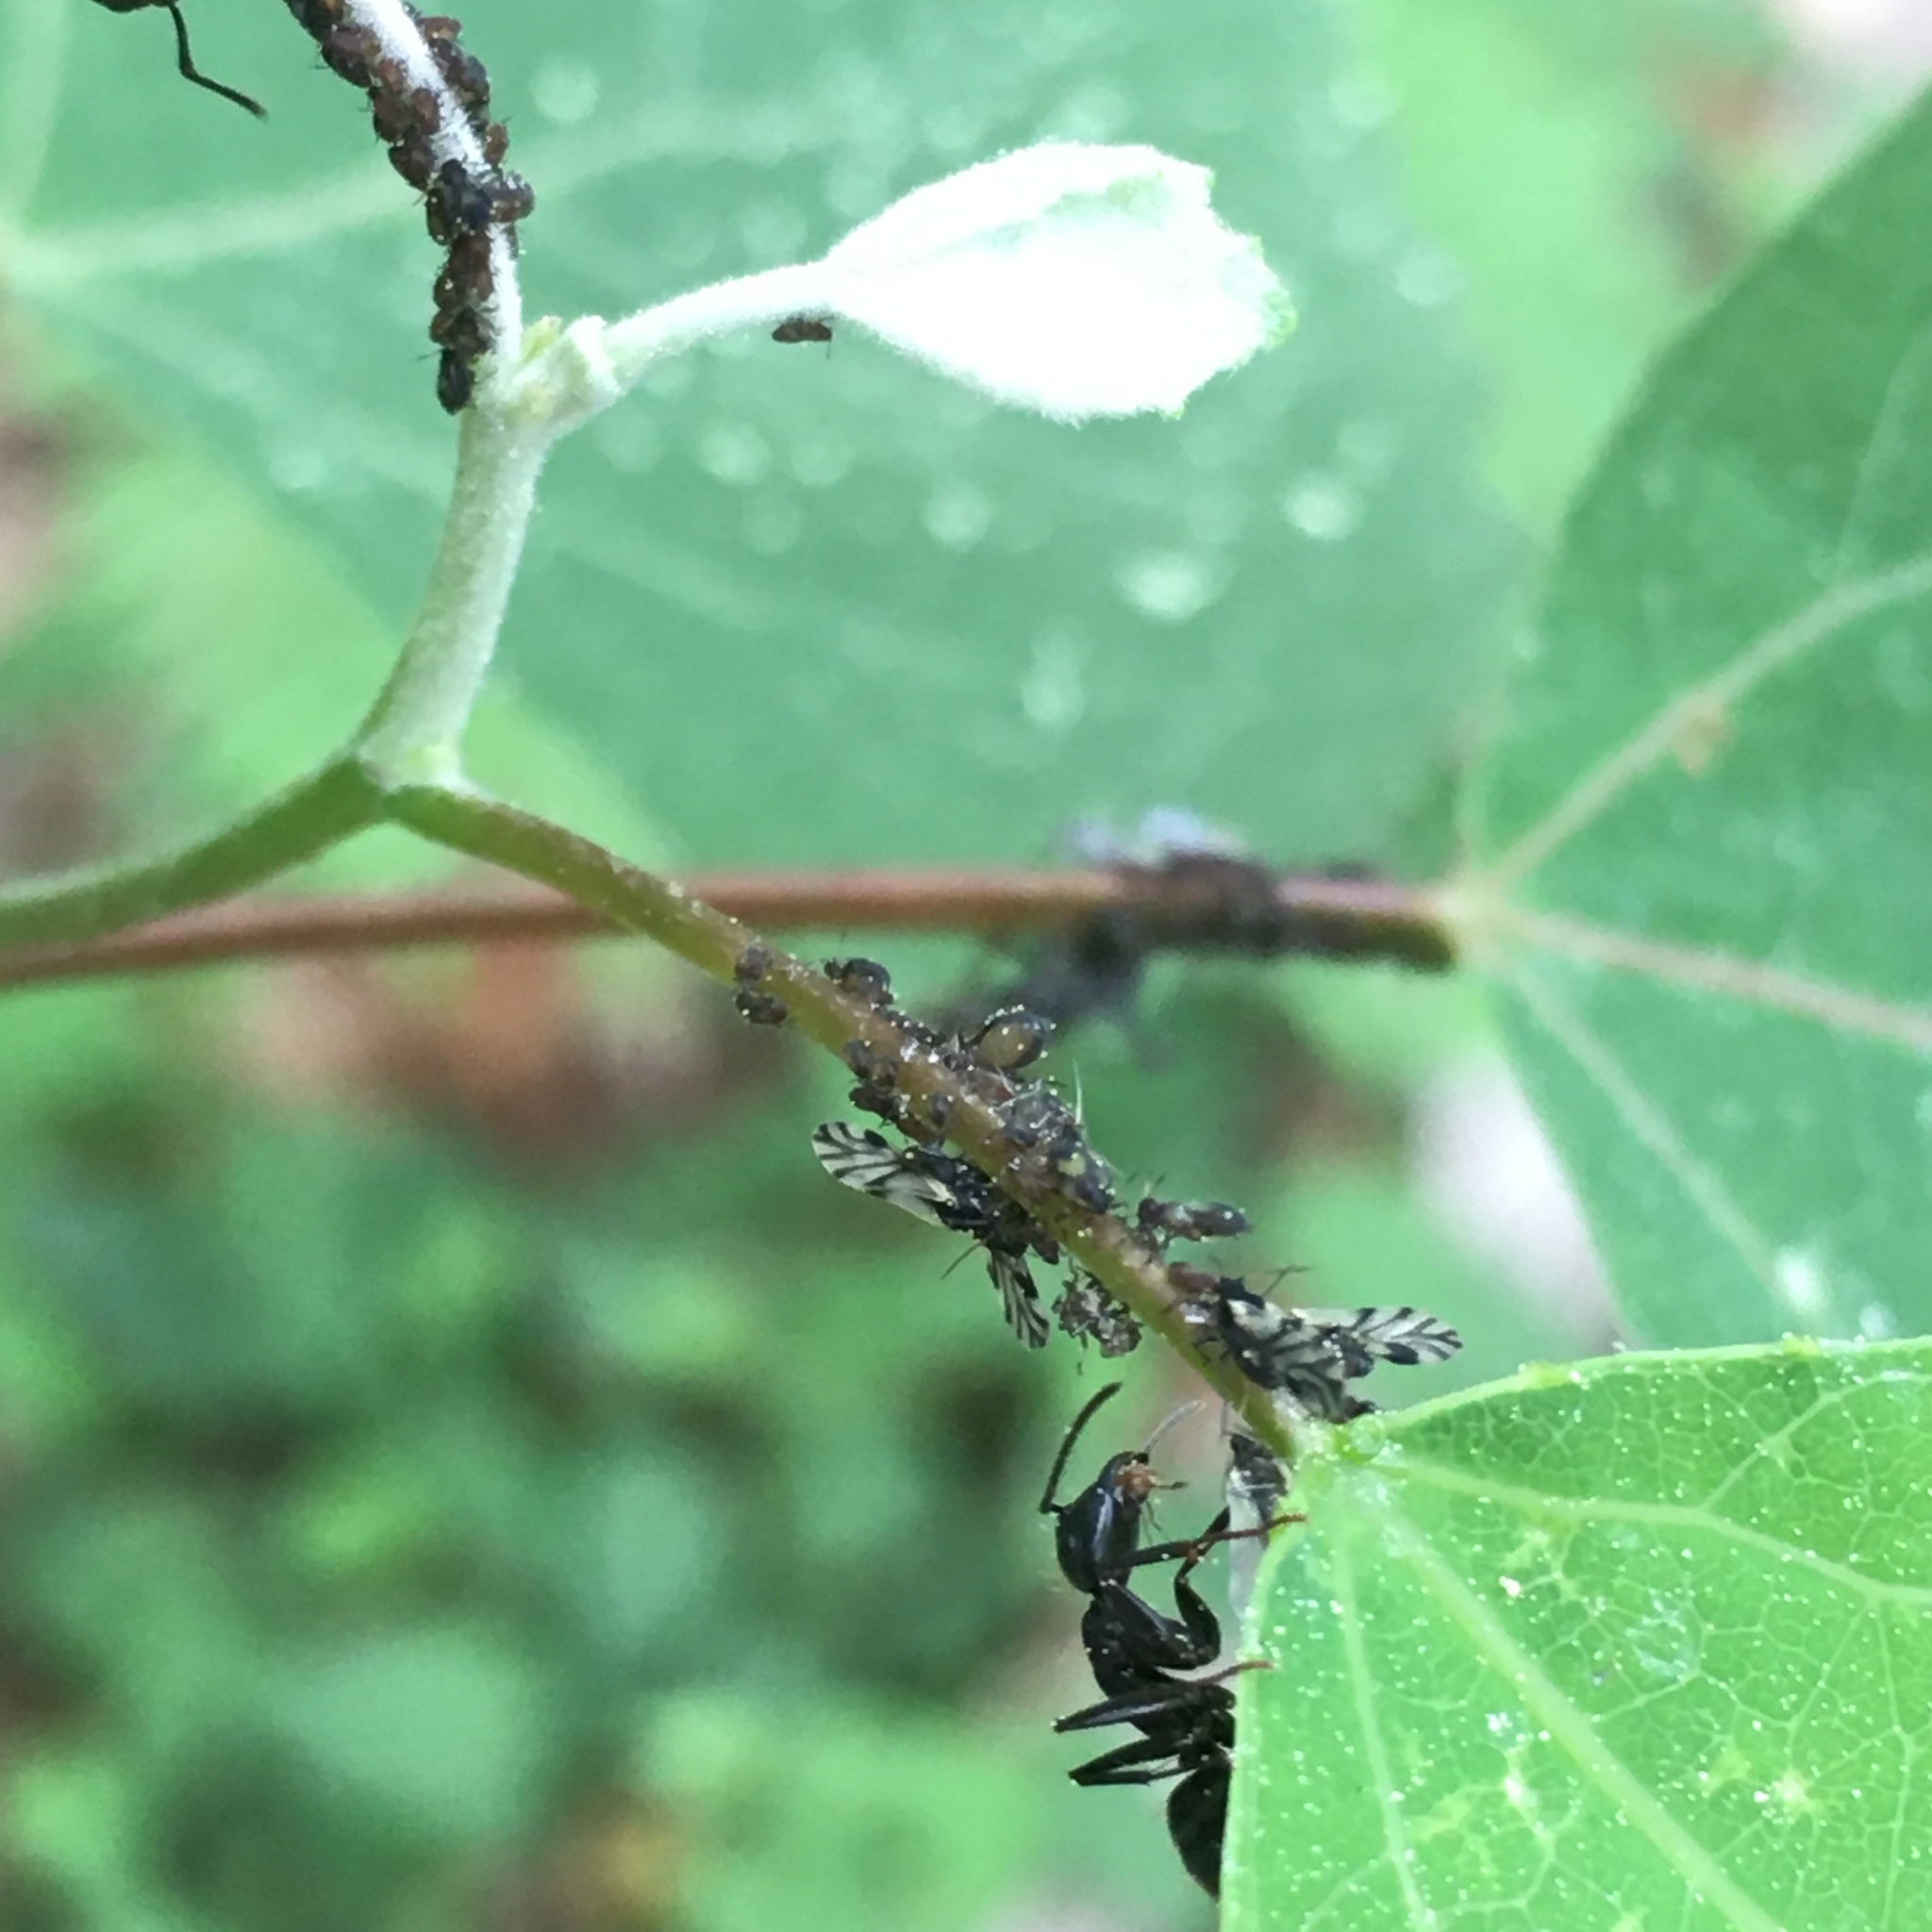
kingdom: Animalia
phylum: Arthropoda
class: Insecta
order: Hemiptera
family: Aphididae
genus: Chaitophorus
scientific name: Chaitophorus populicola
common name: Smokywinged poplar aphid
